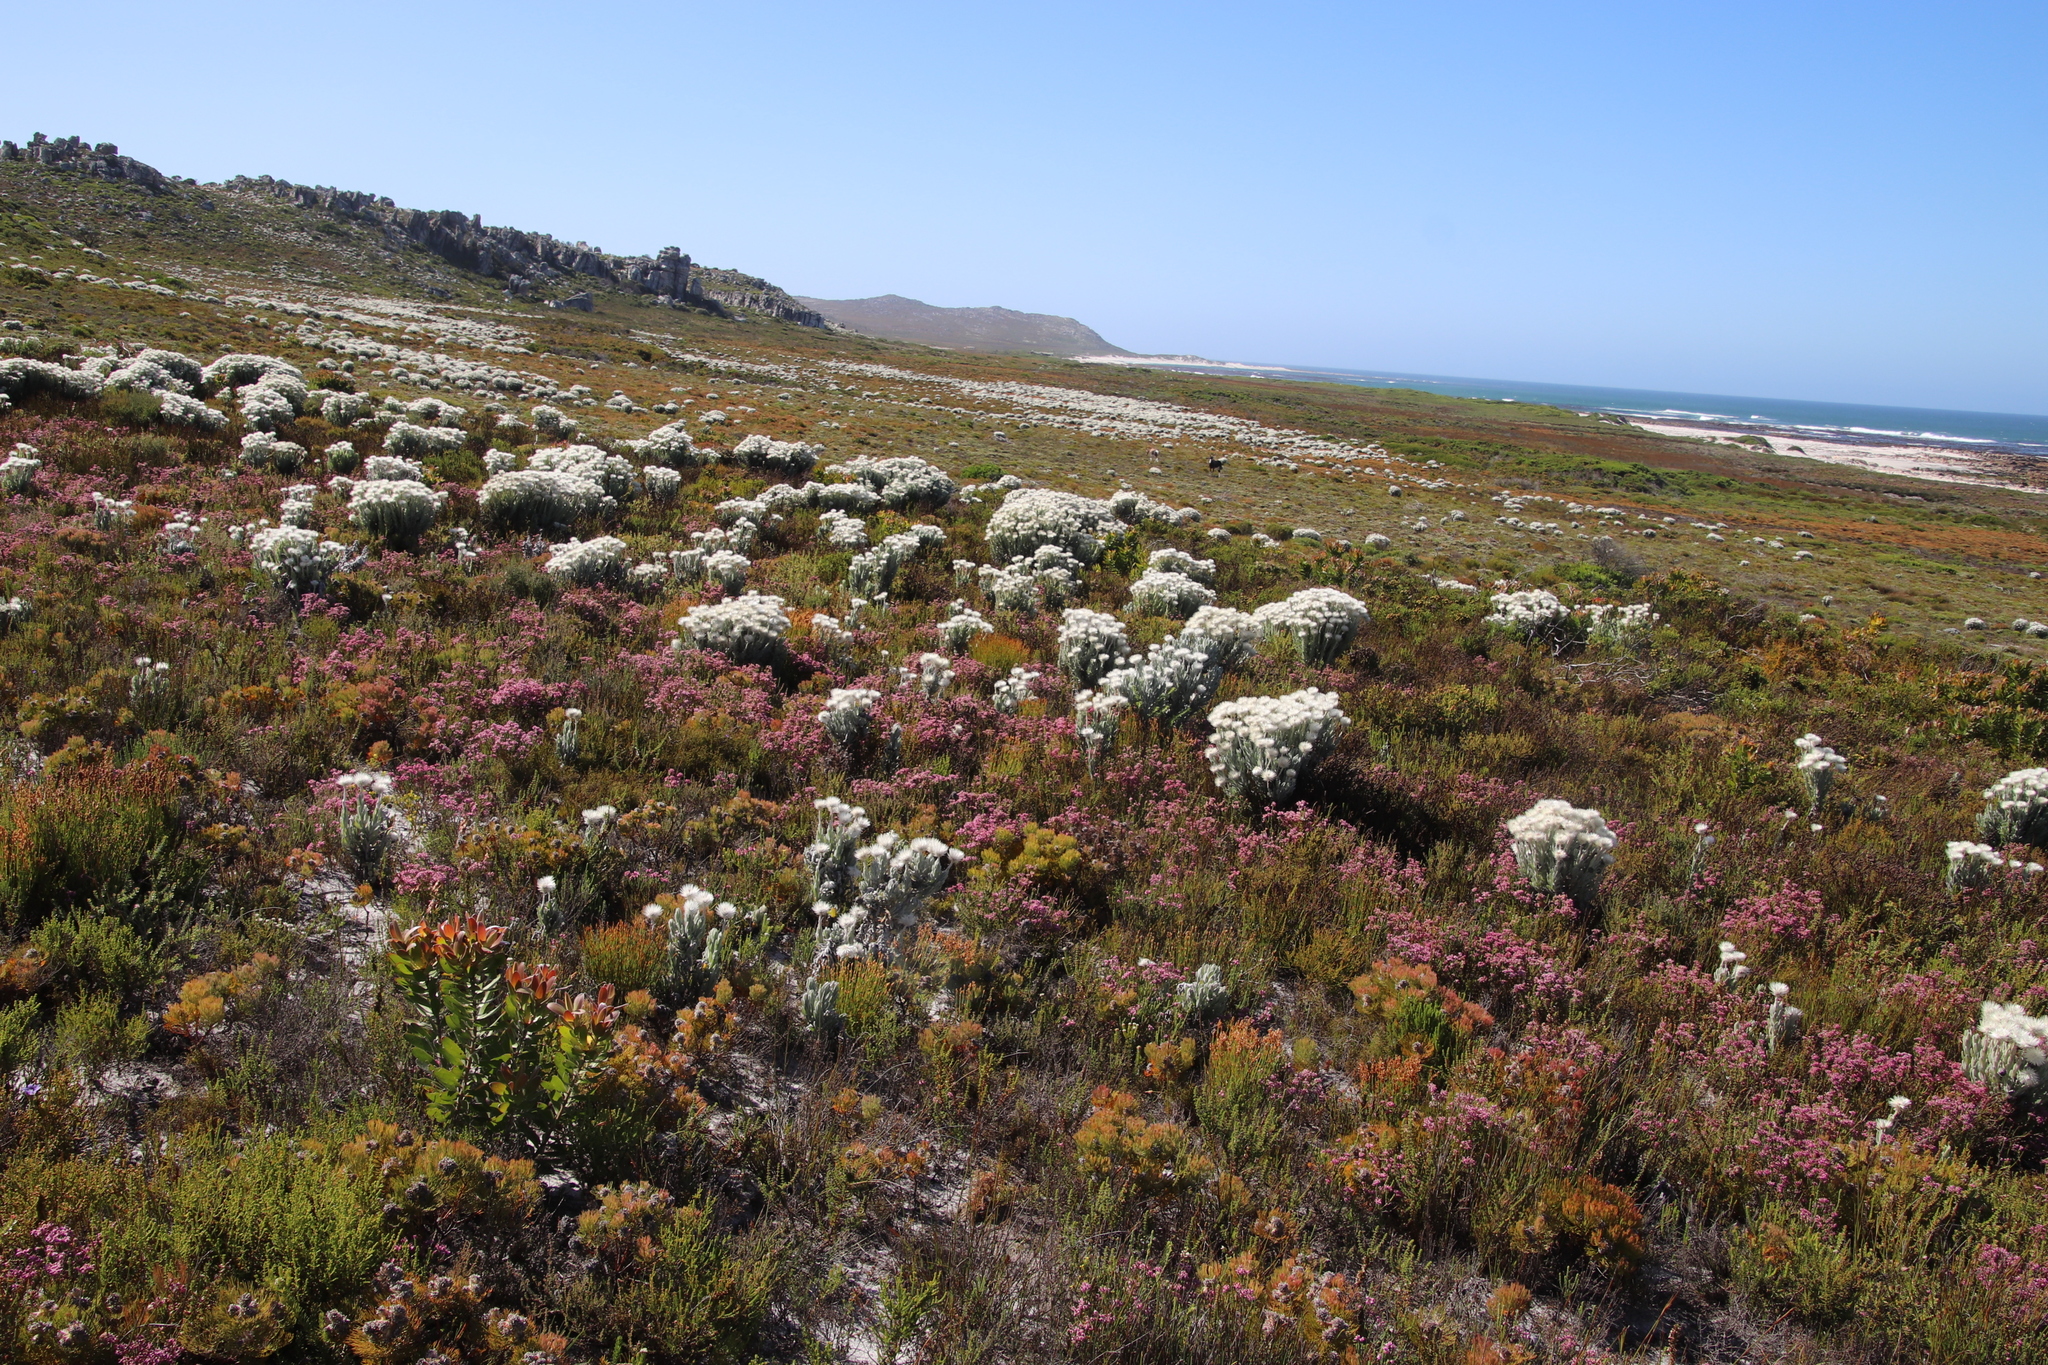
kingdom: Plantae
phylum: Tracheophyta
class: Magnoliopsida
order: Asterales
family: Asteraceae
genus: Syncarpha
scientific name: Syncarpha vestita
